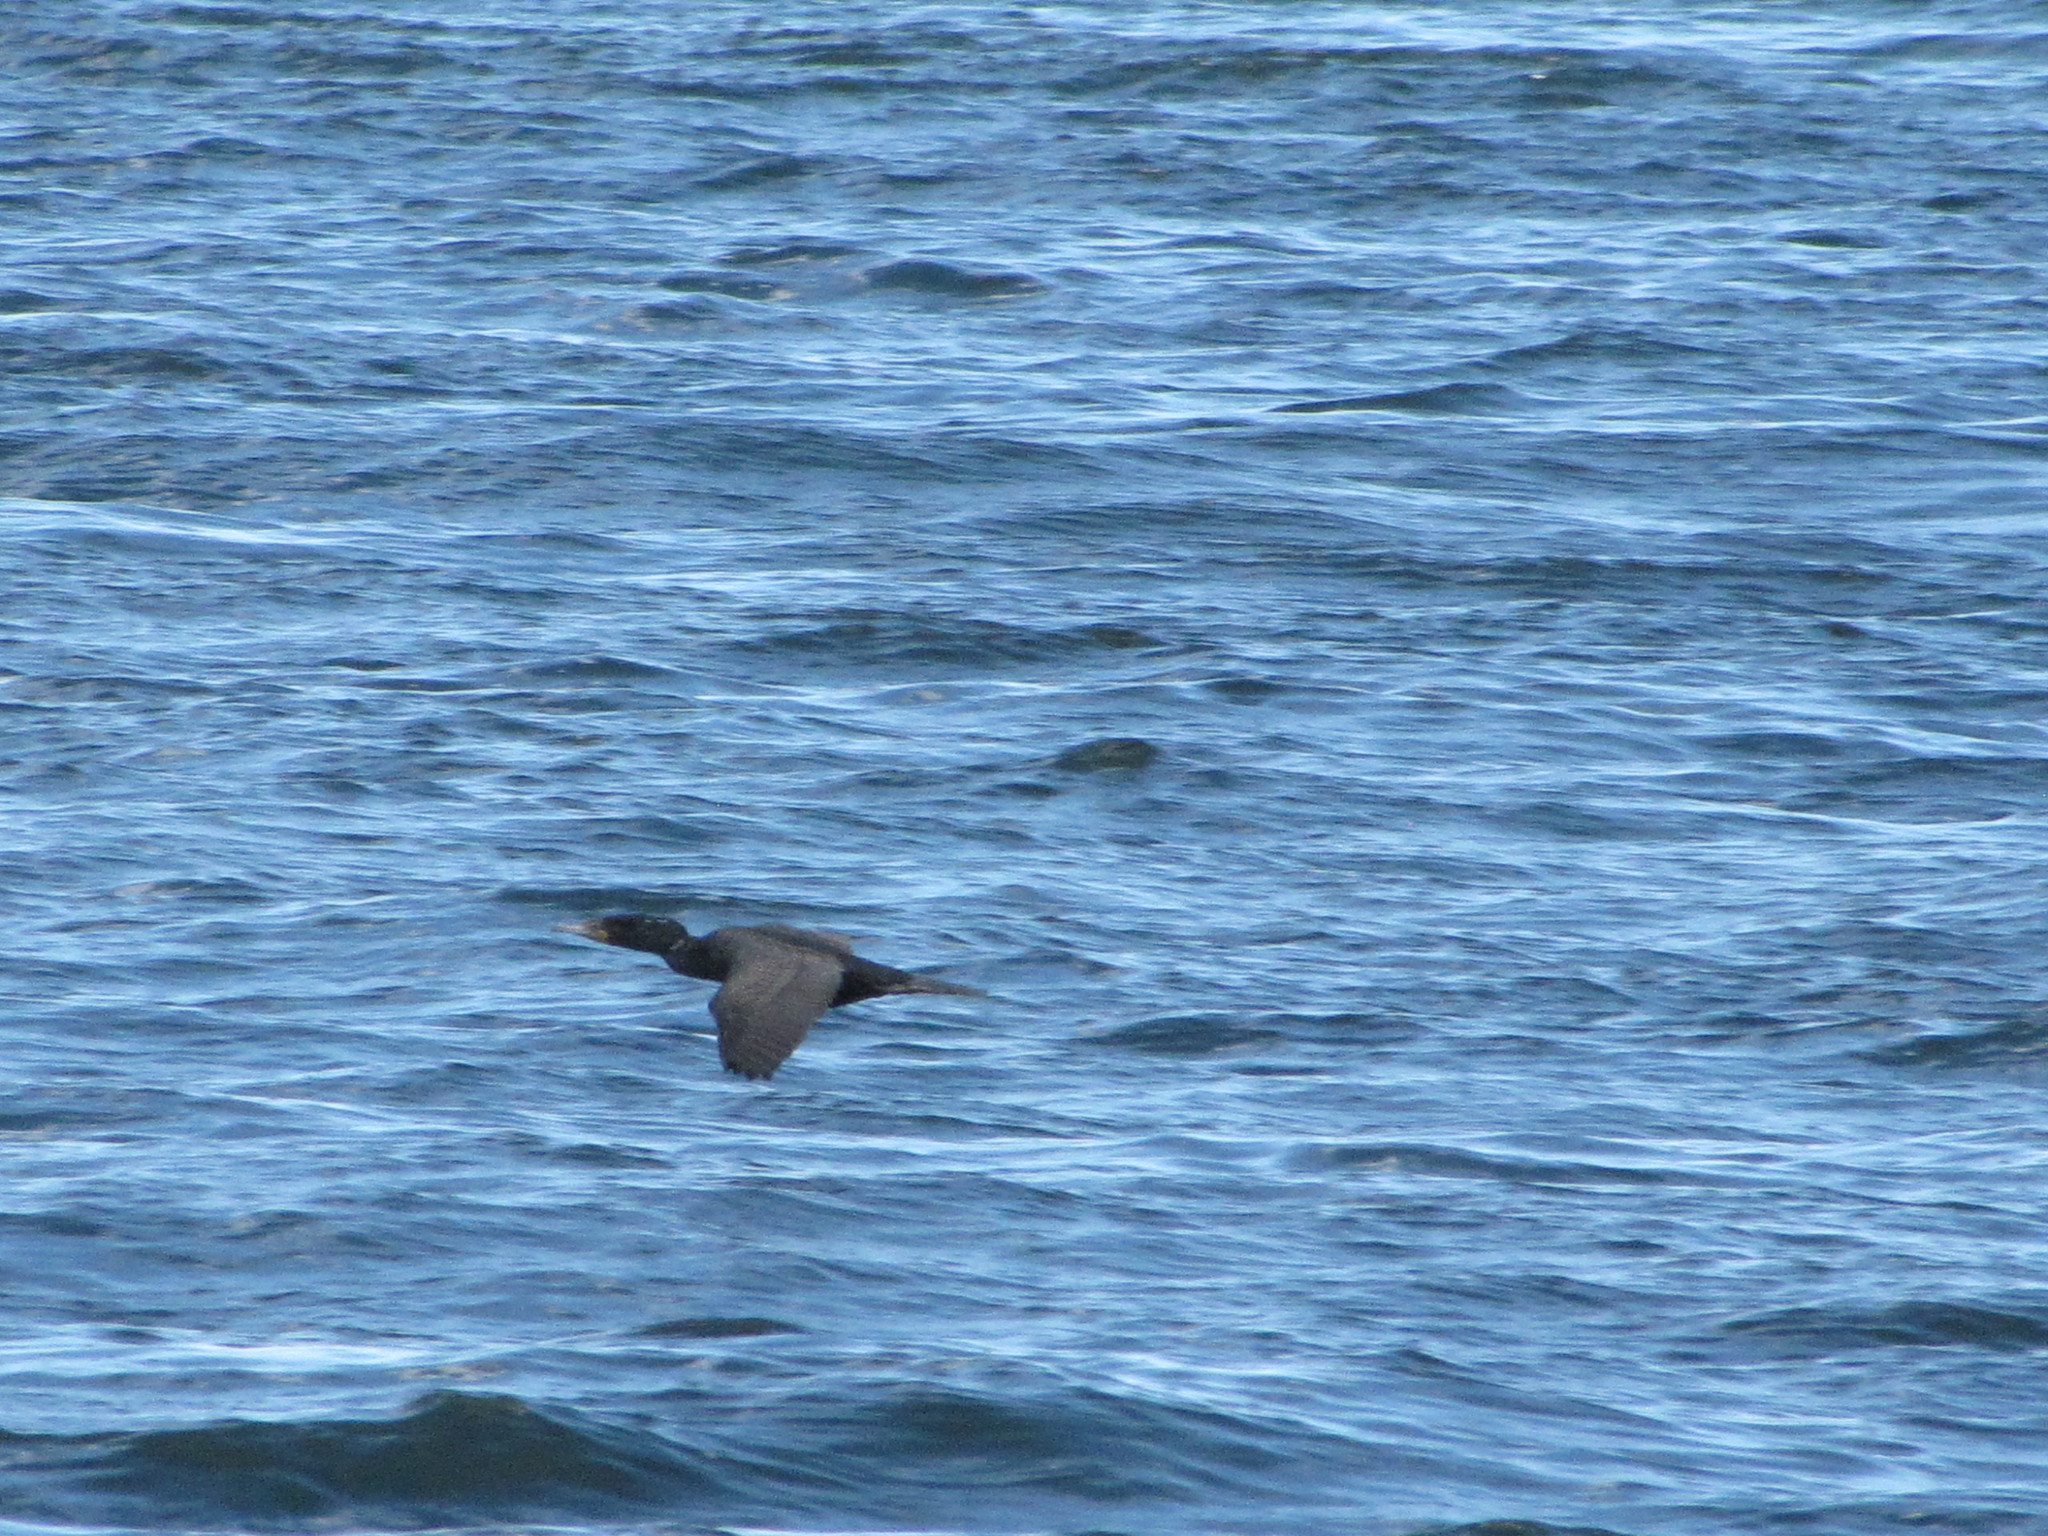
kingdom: Animalia
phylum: Chordata
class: Aves
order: Suliformes
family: Phalacrocoracidae
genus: Phalacrocorax
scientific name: Phalacrocorax auritus
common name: Double-crested cormorant
